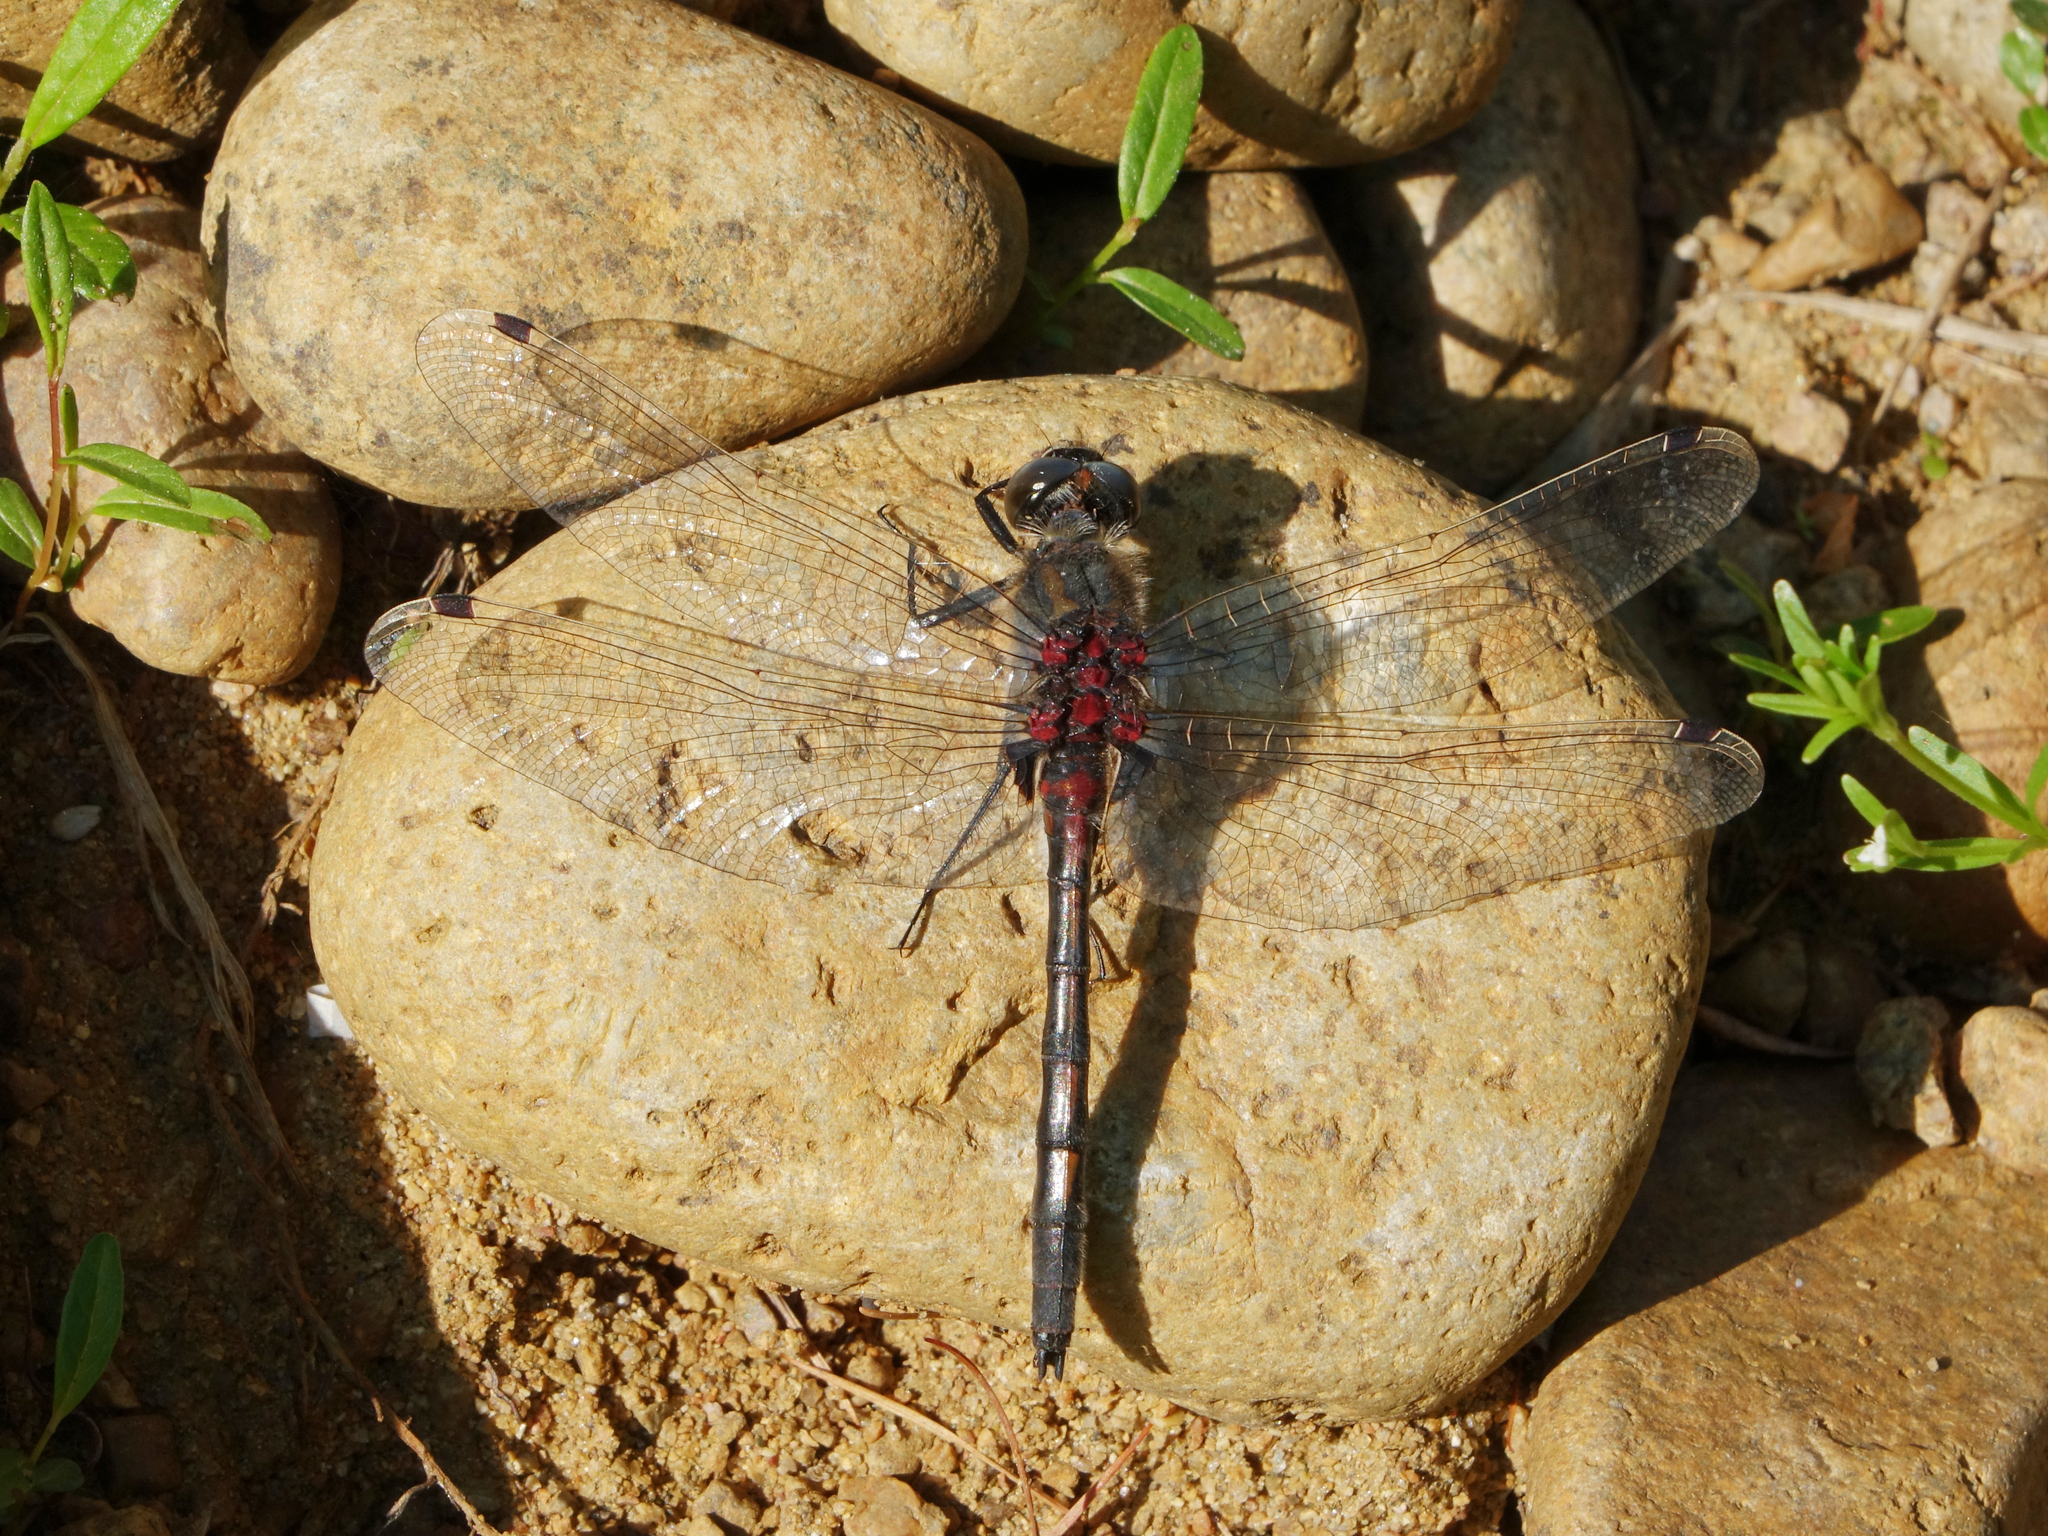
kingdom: Animalia
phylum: Arthropoda
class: Insecta
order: Odonata
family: Libellulidae
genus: Leucorrhinia
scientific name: Leucorrhinia intermedia
